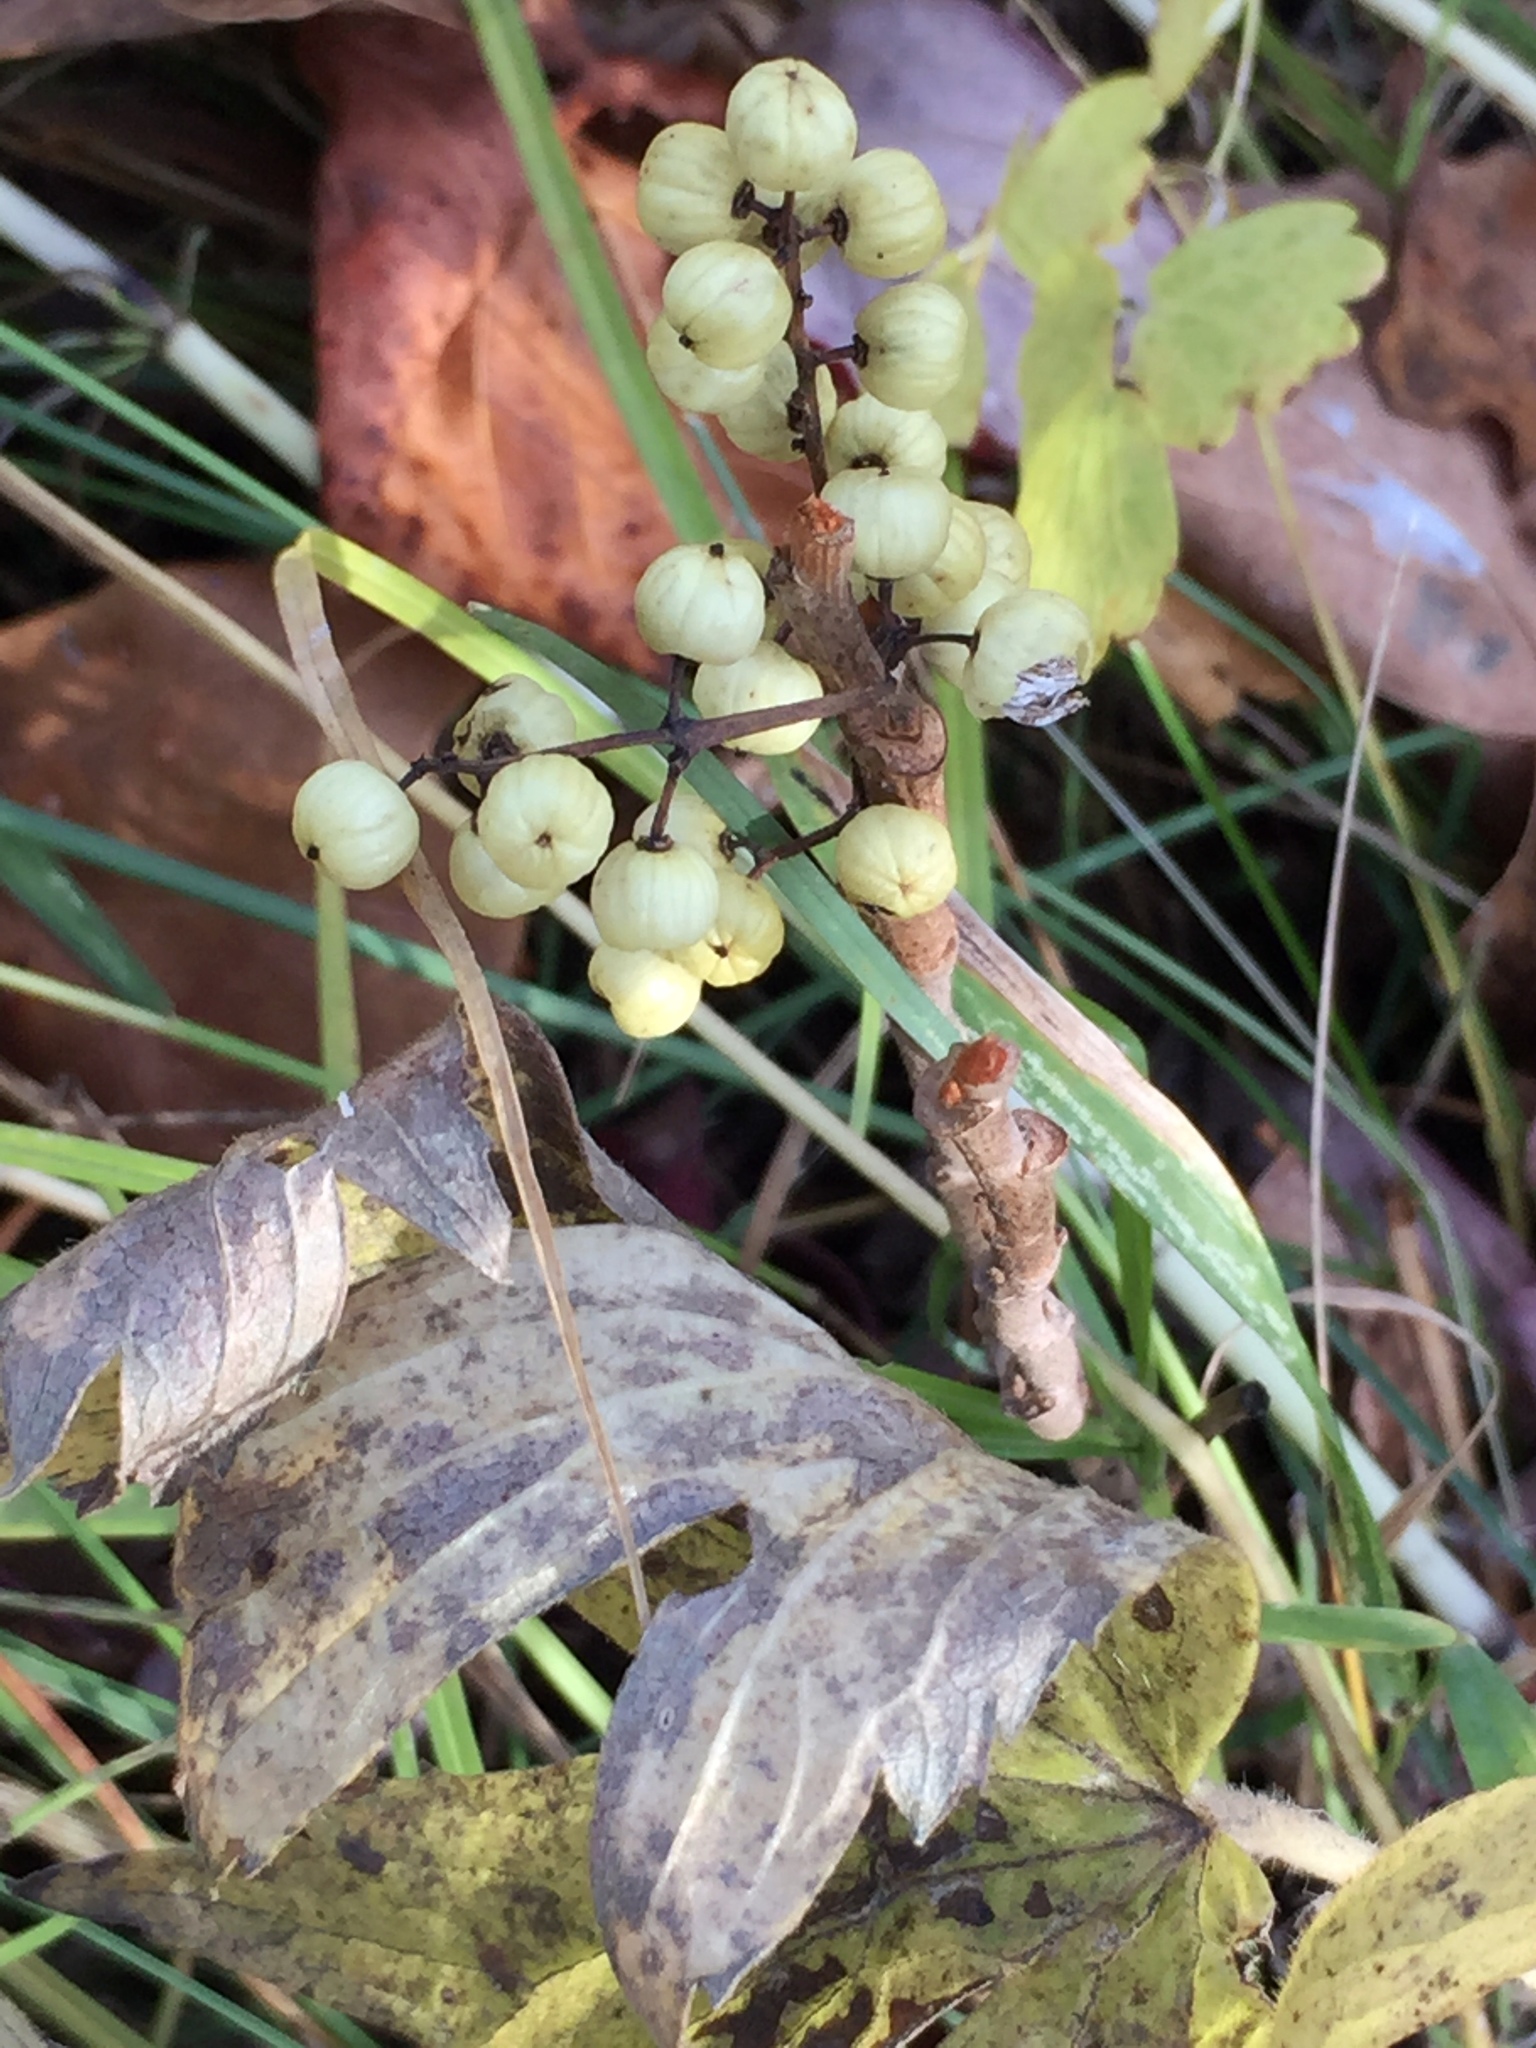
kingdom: Plantae
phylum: Tracheophyta
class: Magnoliopsida
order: Sapindales
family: Anacardiaceae
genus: Toxicodendron
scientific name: Toxicodendron rydbergii
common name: Rydberg's poison-ivy
